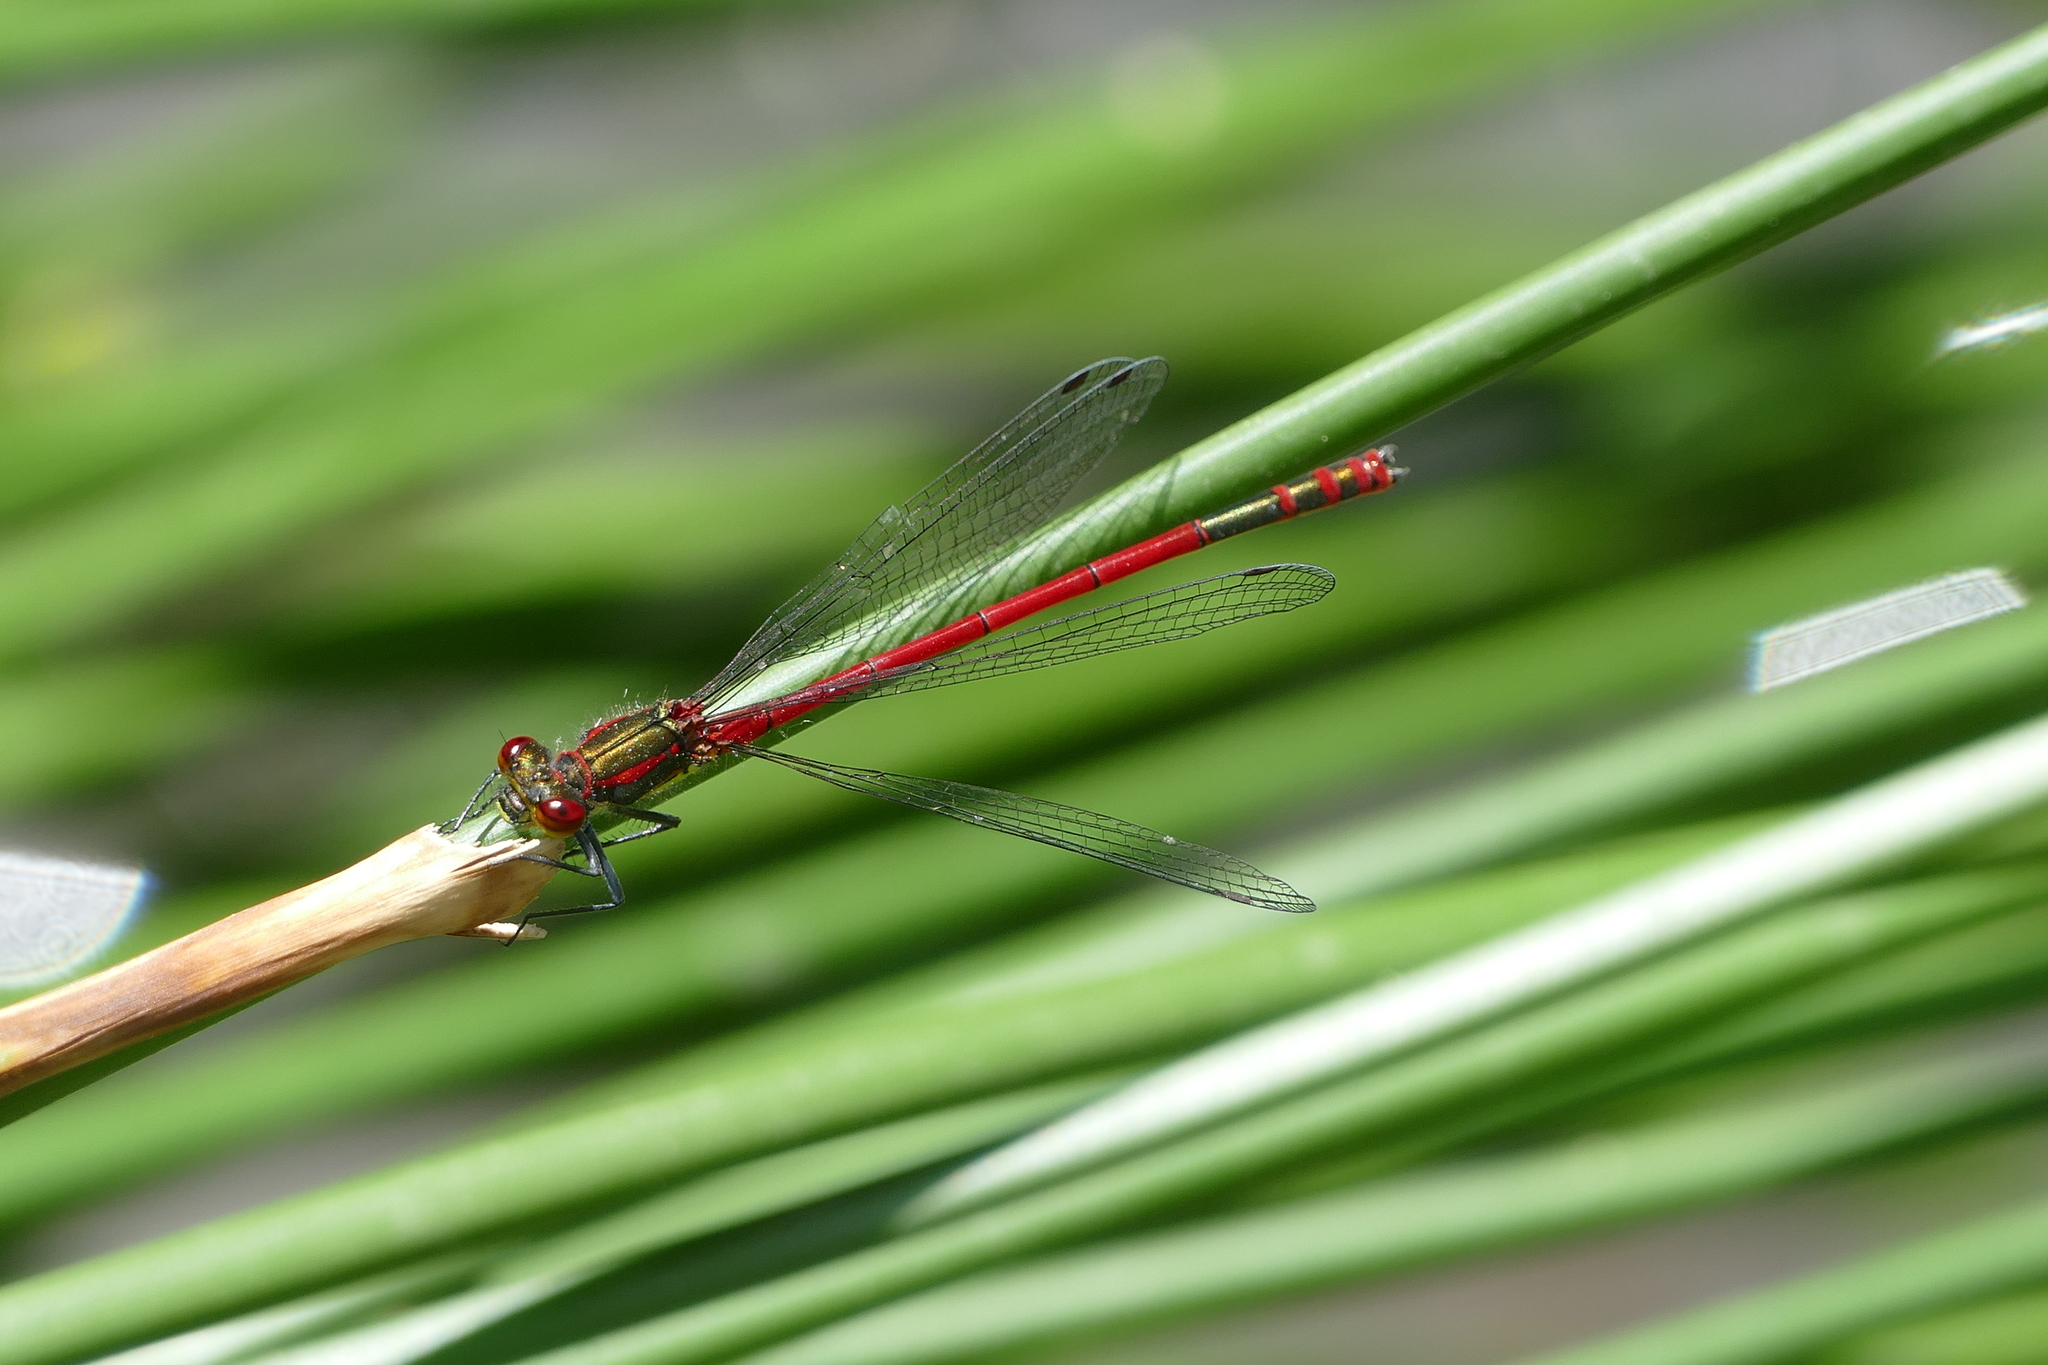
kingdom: Animalia
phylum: Arthropoda
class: Insecta
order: Odonata
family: Coenagrionidae
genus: Pyrrhosoma
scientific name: Pyrrhosoma nymphula
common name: Large red damsel
